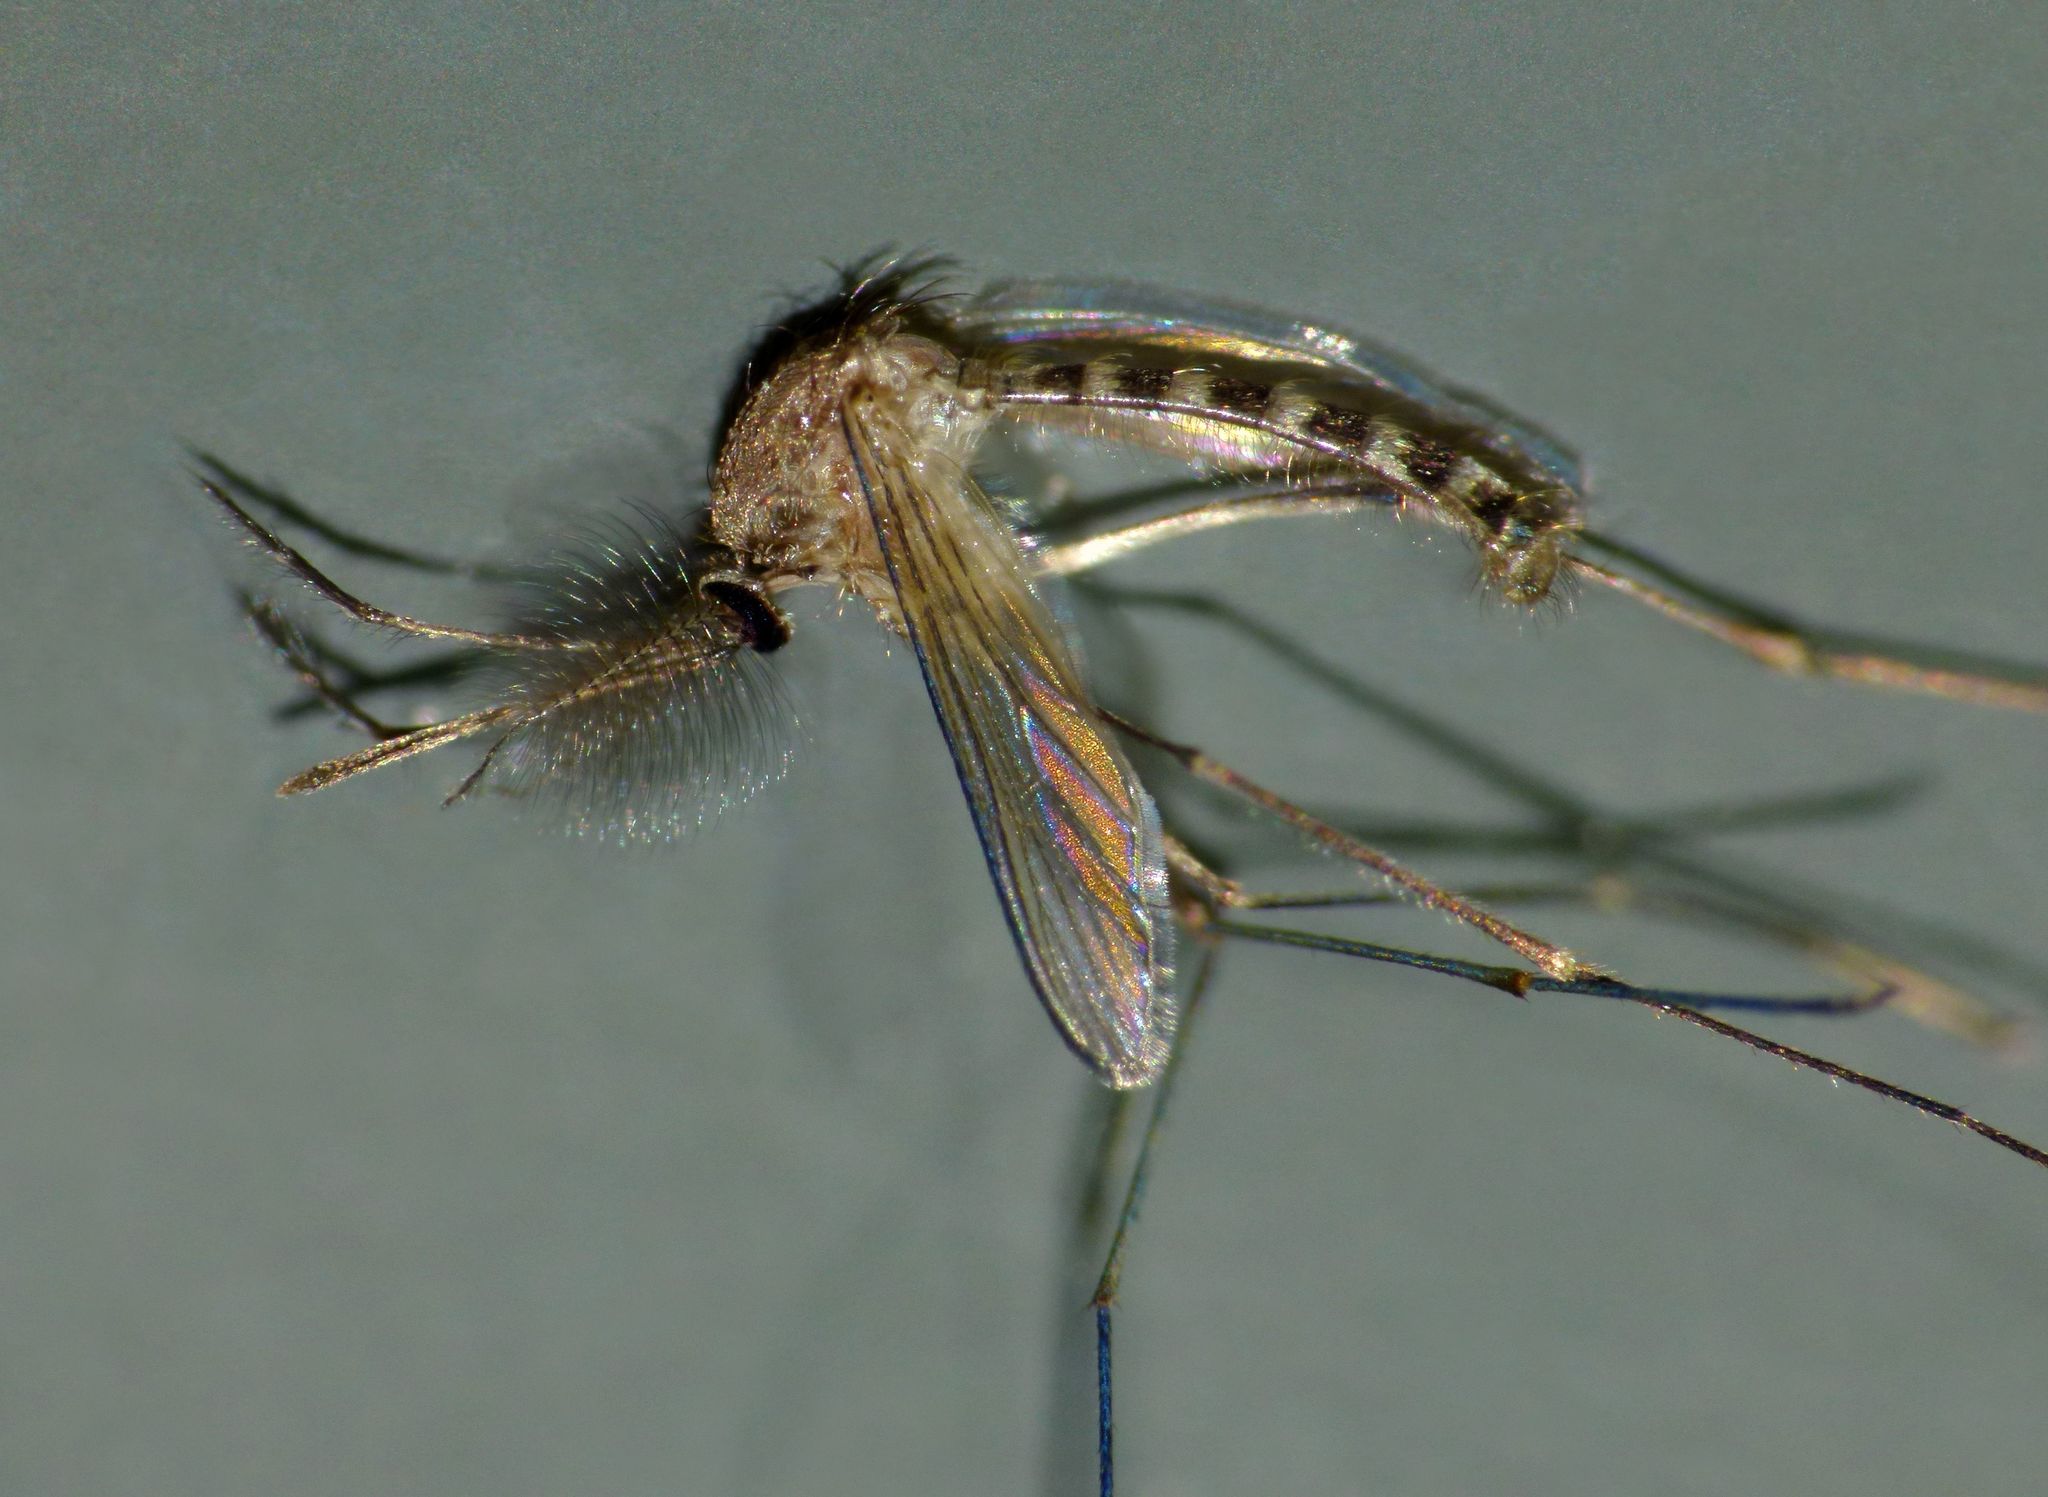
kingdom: Animalia
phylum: Arthropoda
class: Insecta
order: Diptera
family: Culicidae
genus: Culex
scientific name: Culex quinquefasciatus
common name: Southern house mosquito
